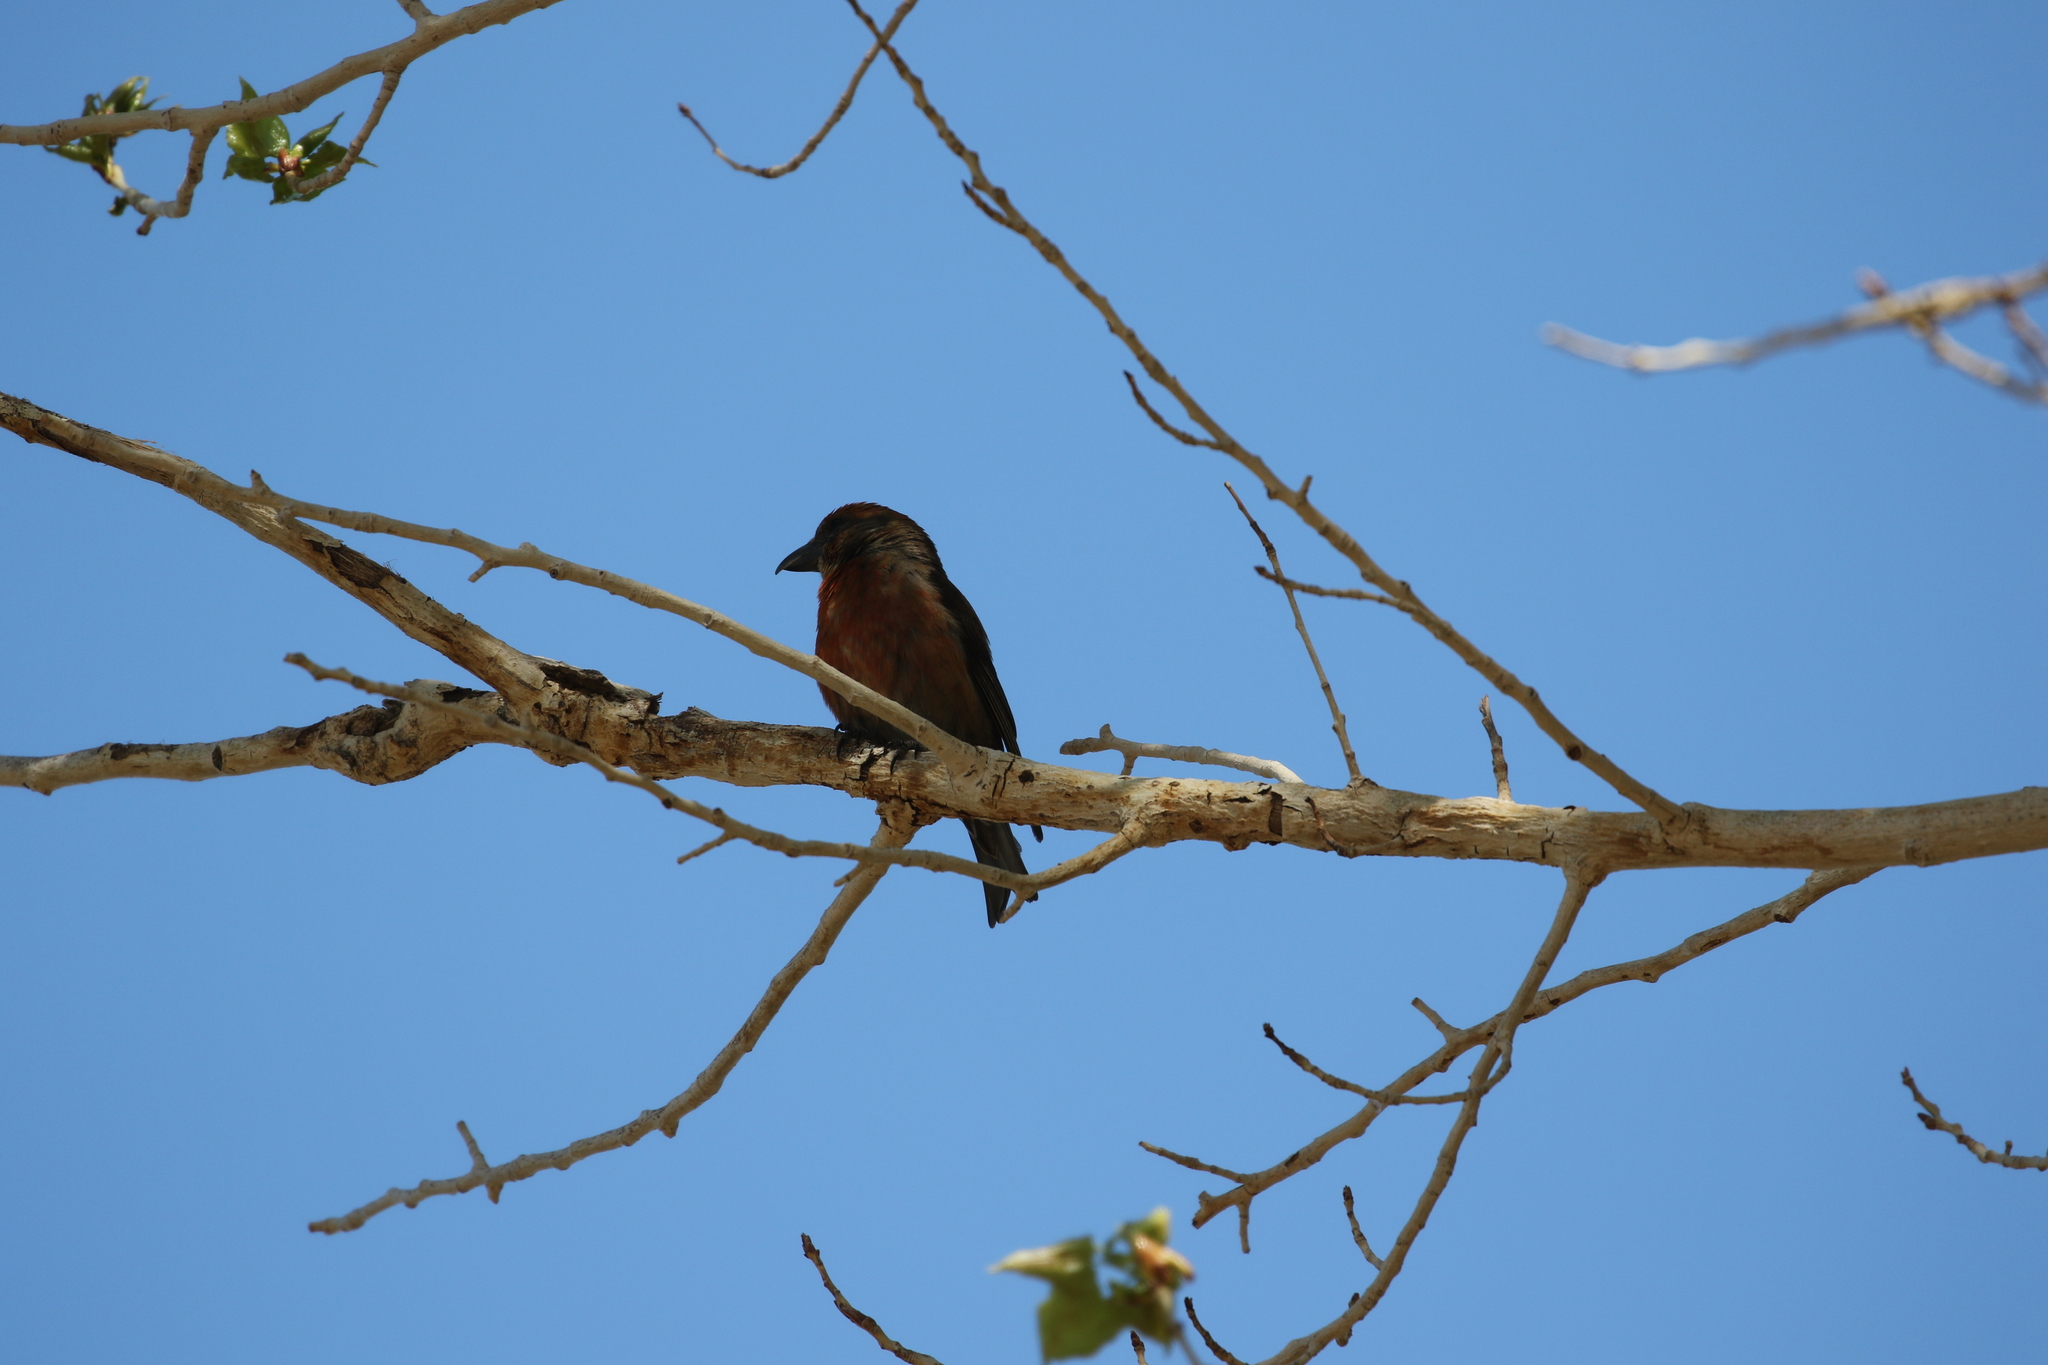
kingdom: Animalia
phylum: Chordata
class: Aves
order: Passeriformes
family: Fringillidae
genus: Loxia
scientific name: Loxia curvirostra
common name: Red crossbill
